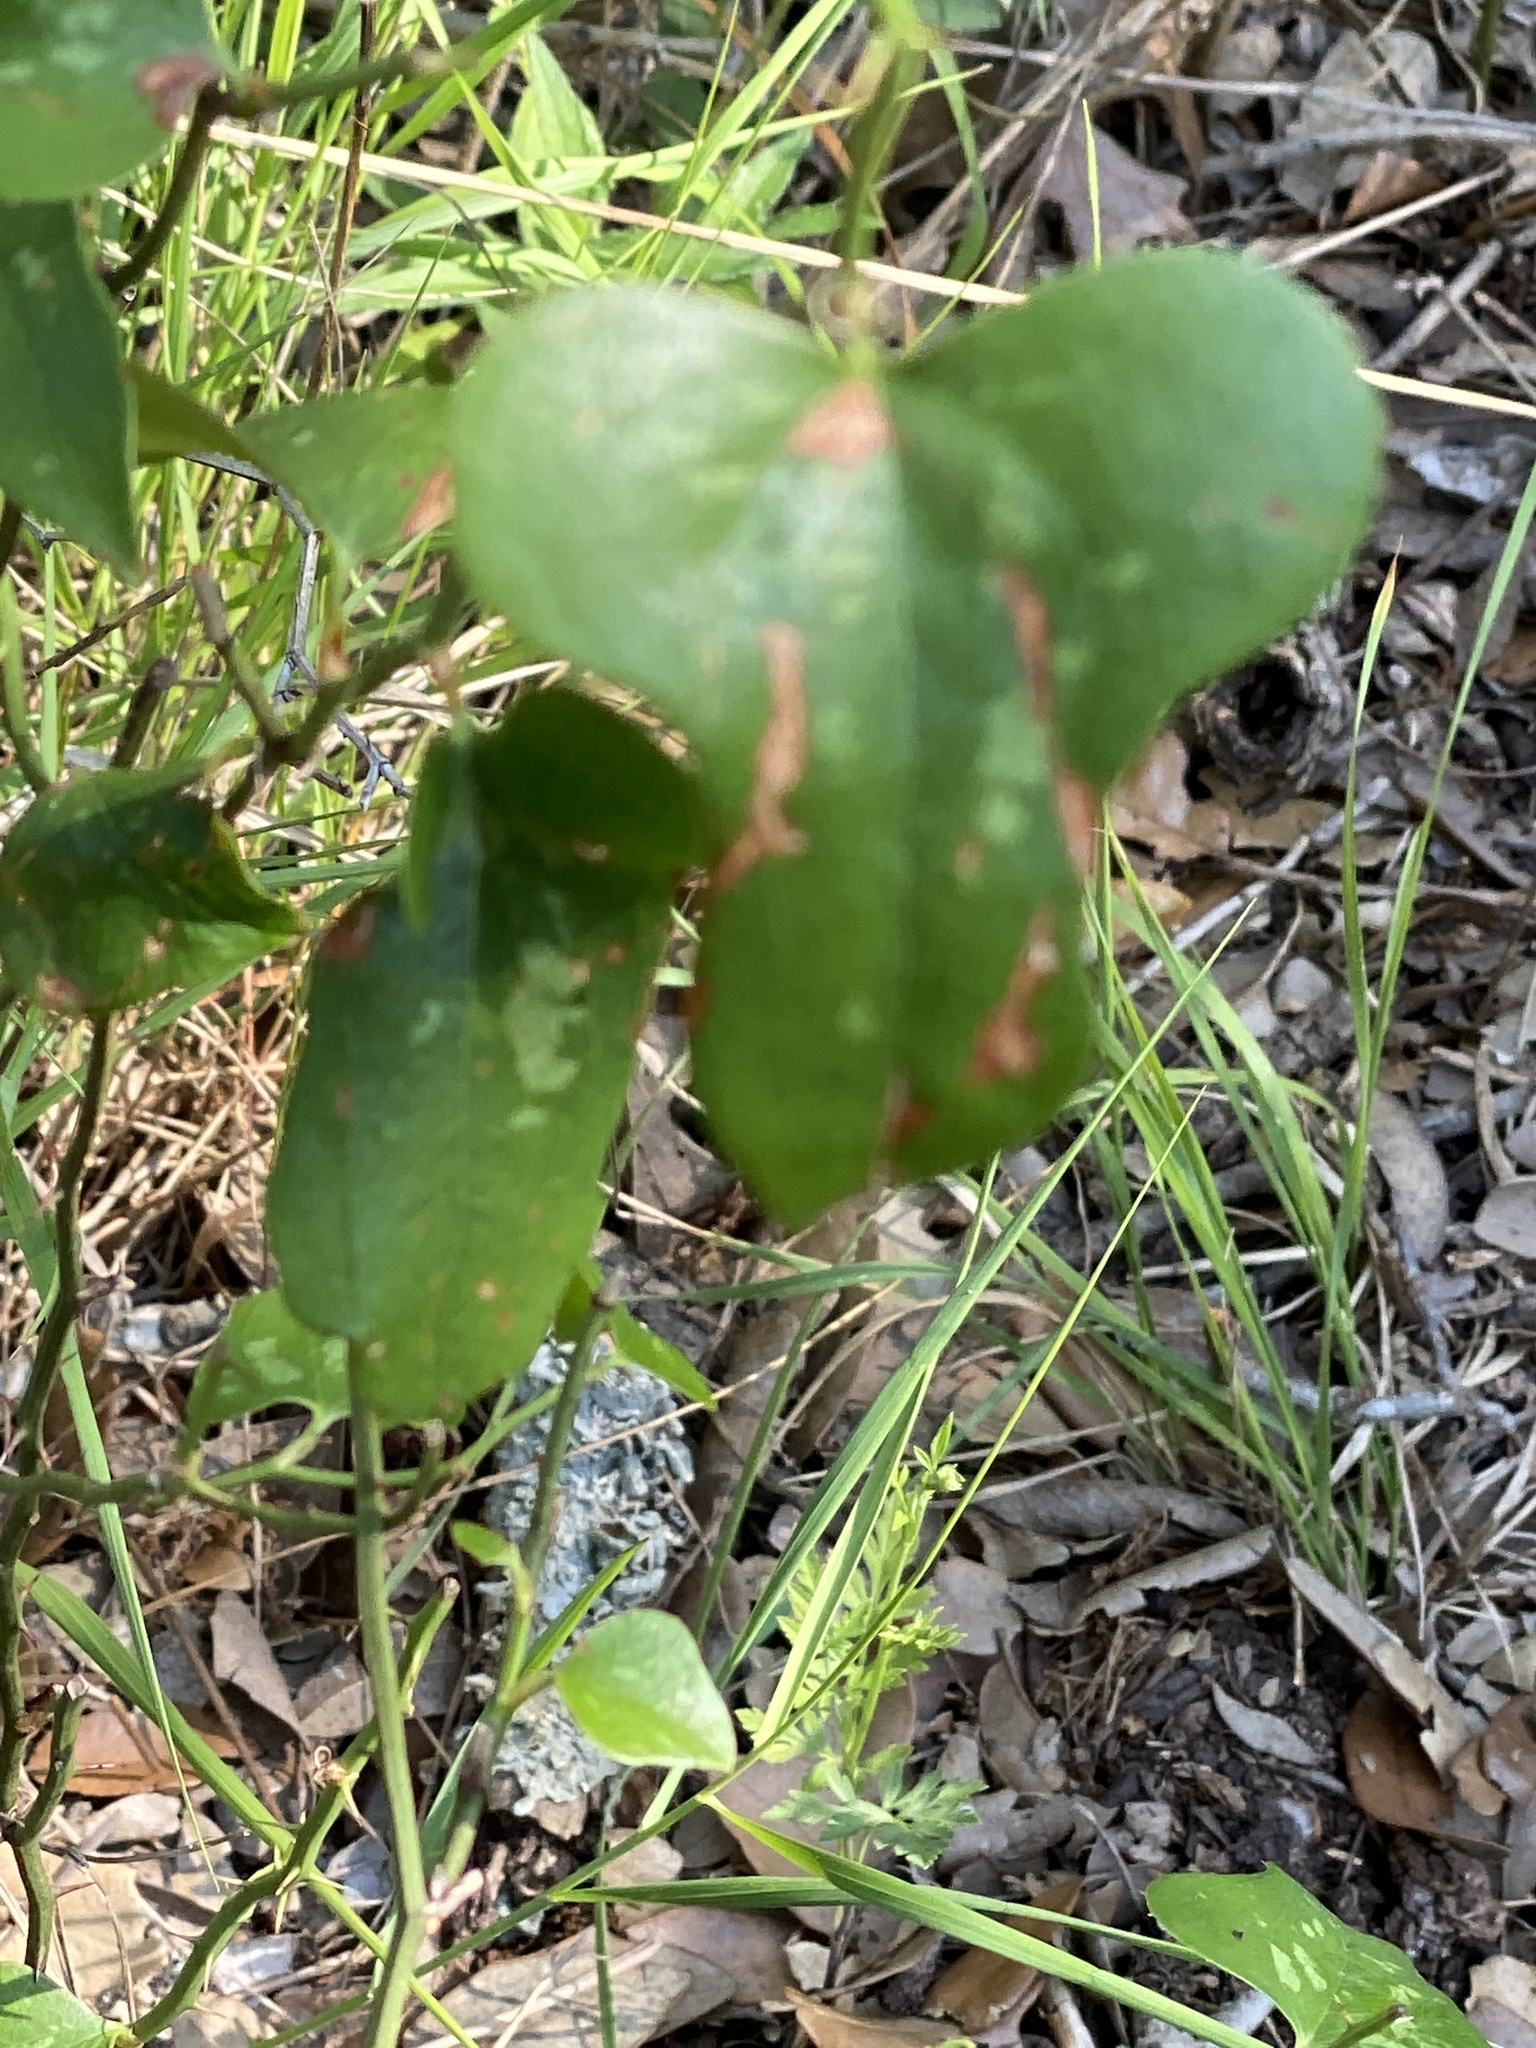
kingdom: Plantae
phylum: Tracheophyta
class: Liliopsida
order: Liliales
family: Smilacaceae
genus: Smilax
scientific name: Smilax bona-nox
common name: Catbrier
